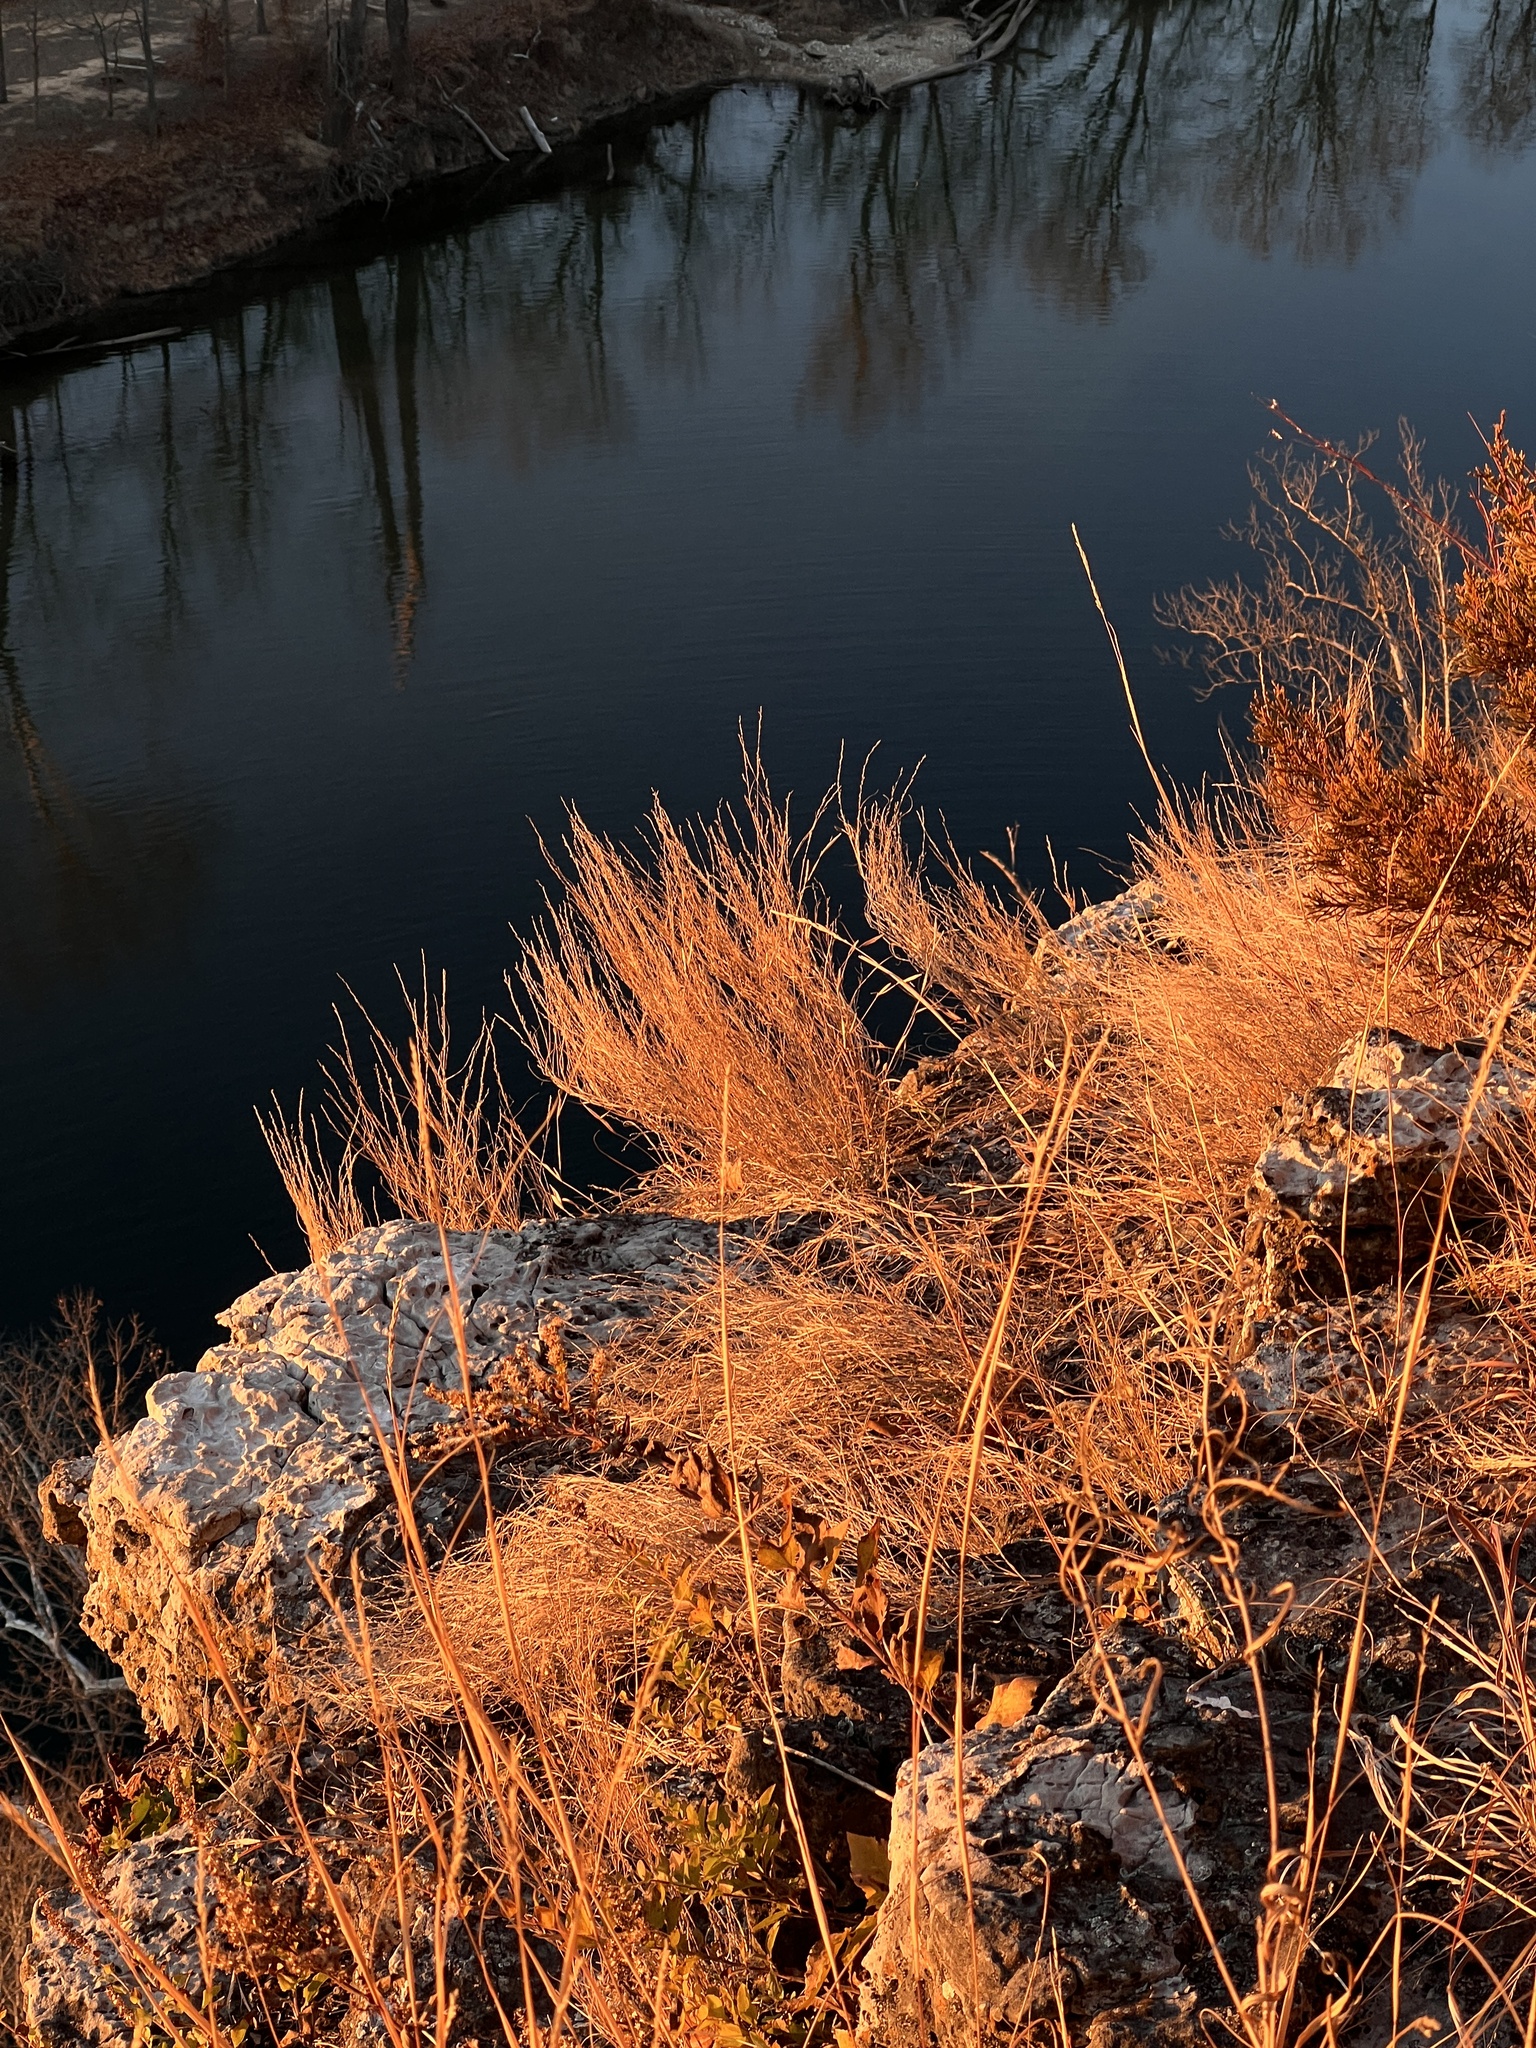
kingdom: Plantae
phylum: Tracheophyta
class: Liliopsida
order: Poales
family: Poaceae
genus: Muhlenbergia
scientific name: Muhlenbergia cuspidata
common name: Plains muhly
